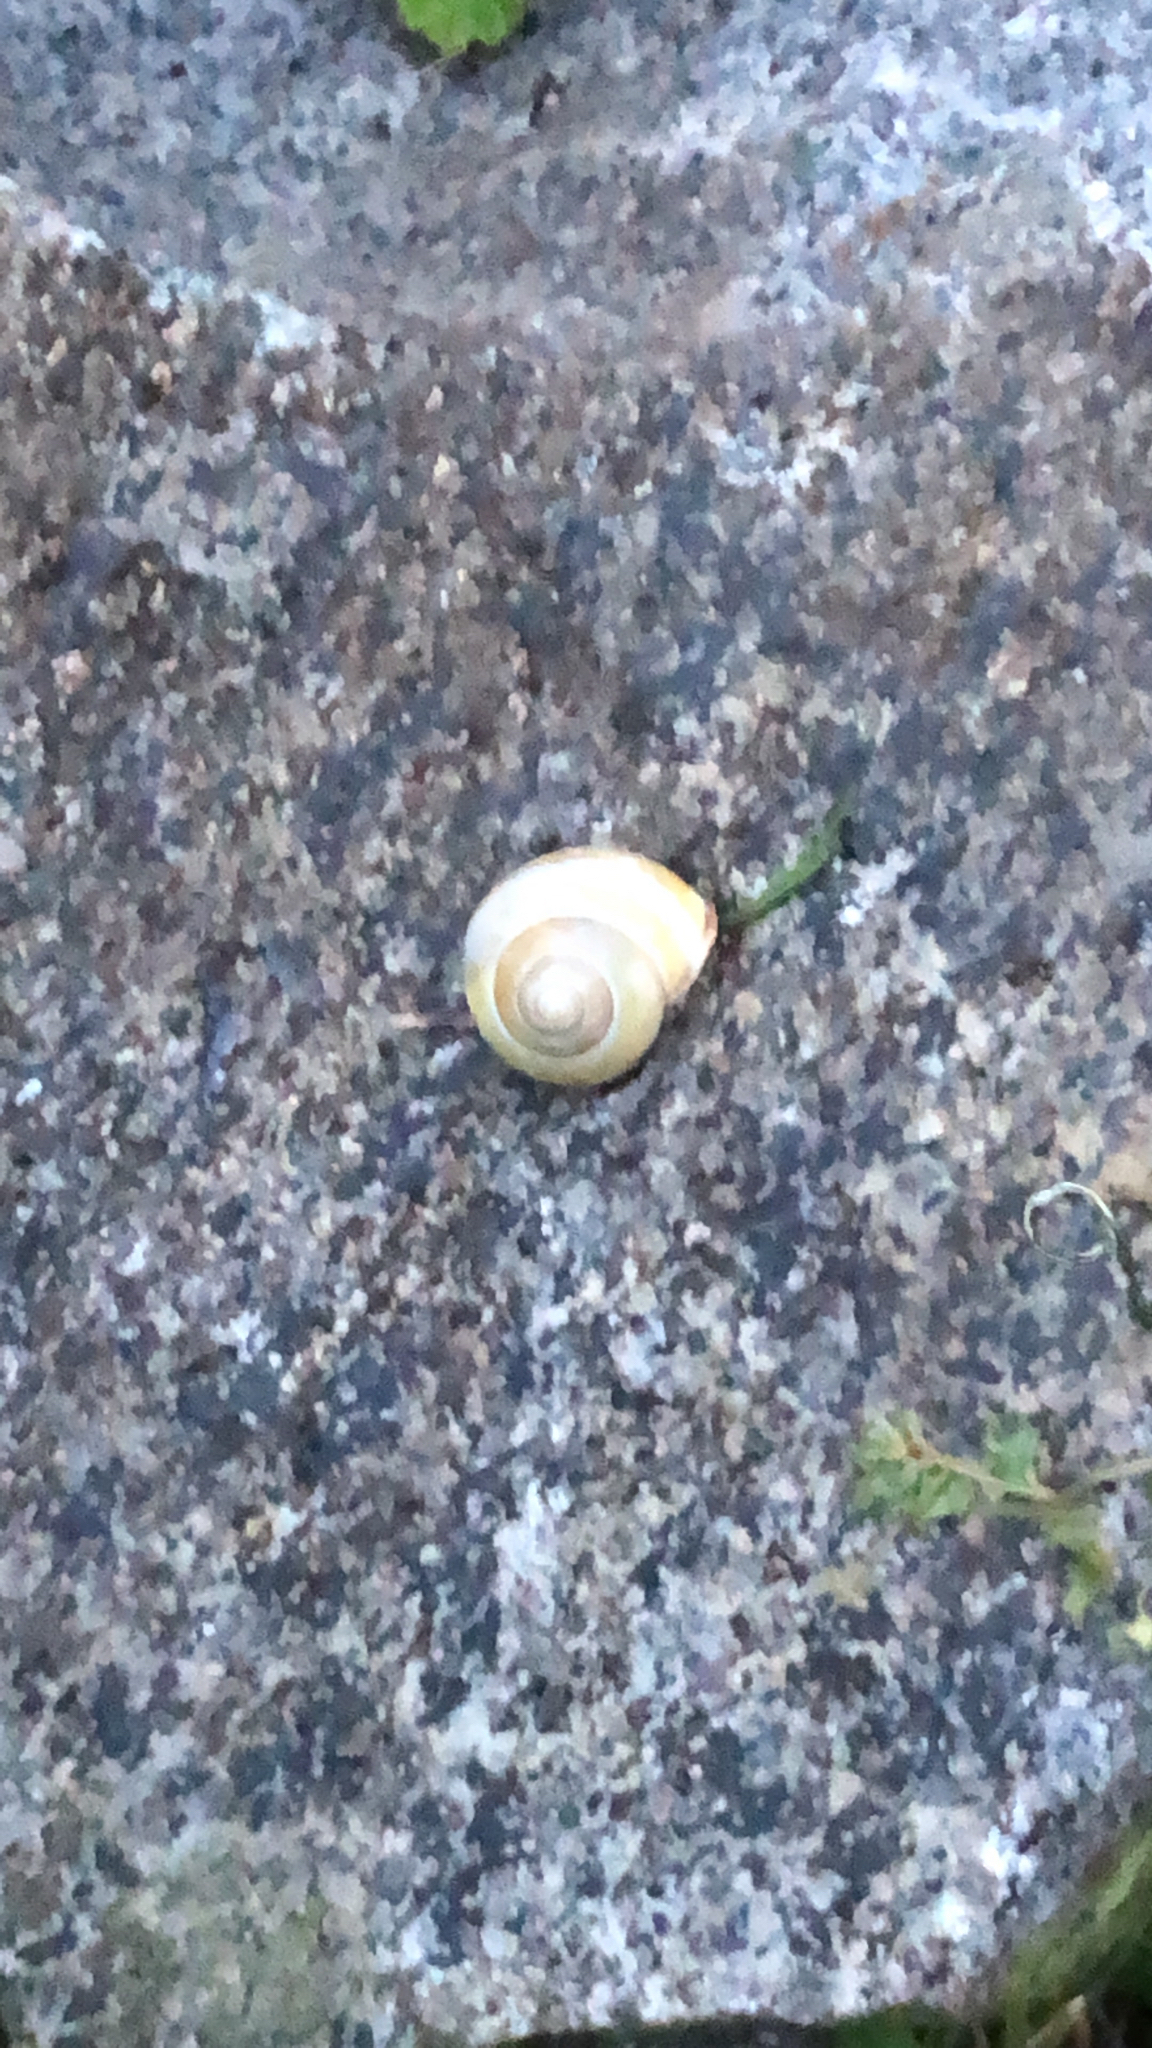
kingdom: Animalia
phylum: Mollusca
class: Gastropoda
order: Stylommatophora
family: Helicidae
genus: Cepaea
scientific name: Cepaea nemoralis
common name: Grovesnail
